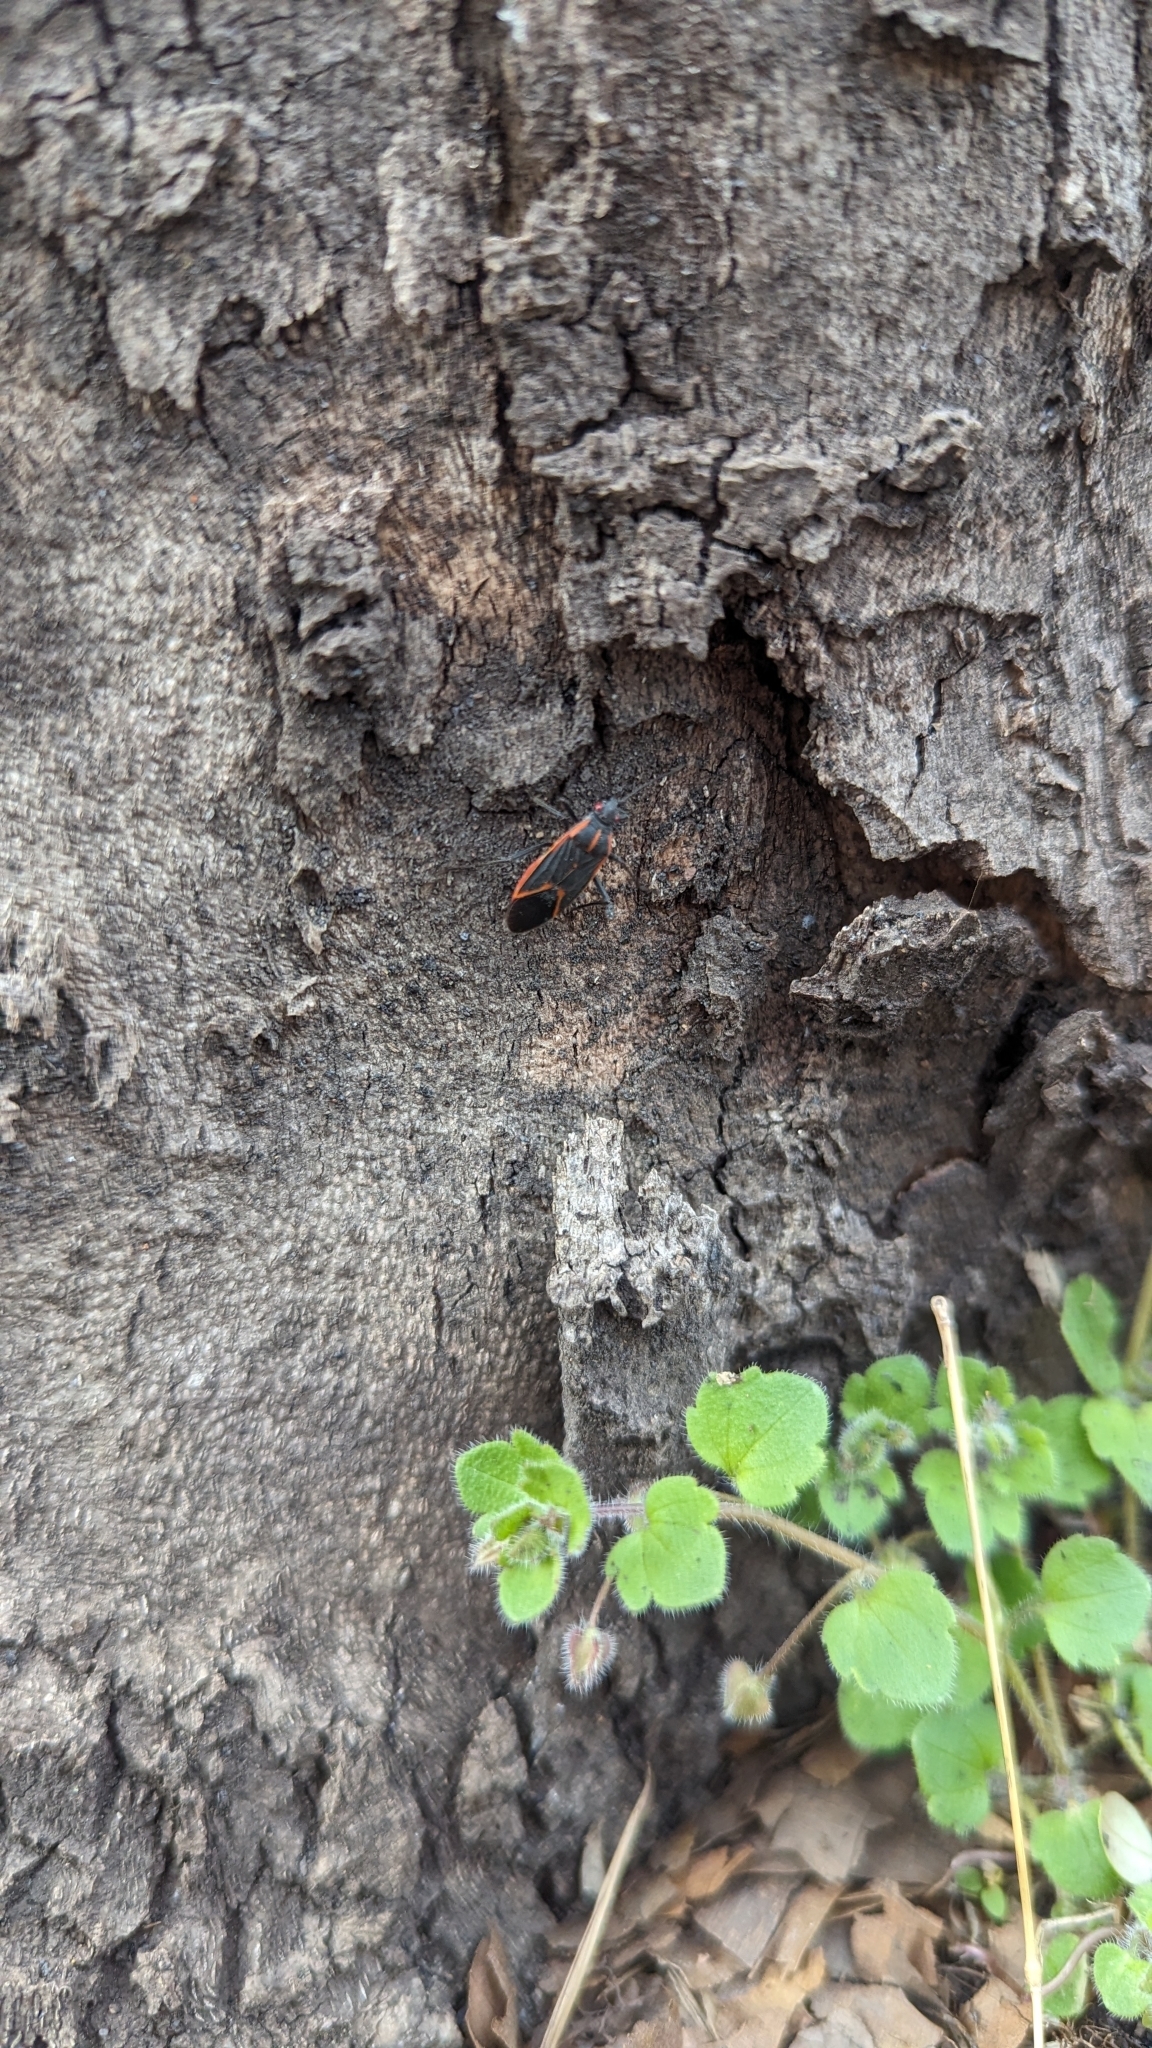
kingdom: Animalia
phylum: Arthropoda
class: Insecta
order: Hemiptera
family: Rhopalidae
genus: Boisea
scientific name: Boisea trivittata
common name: Boxelder bug
